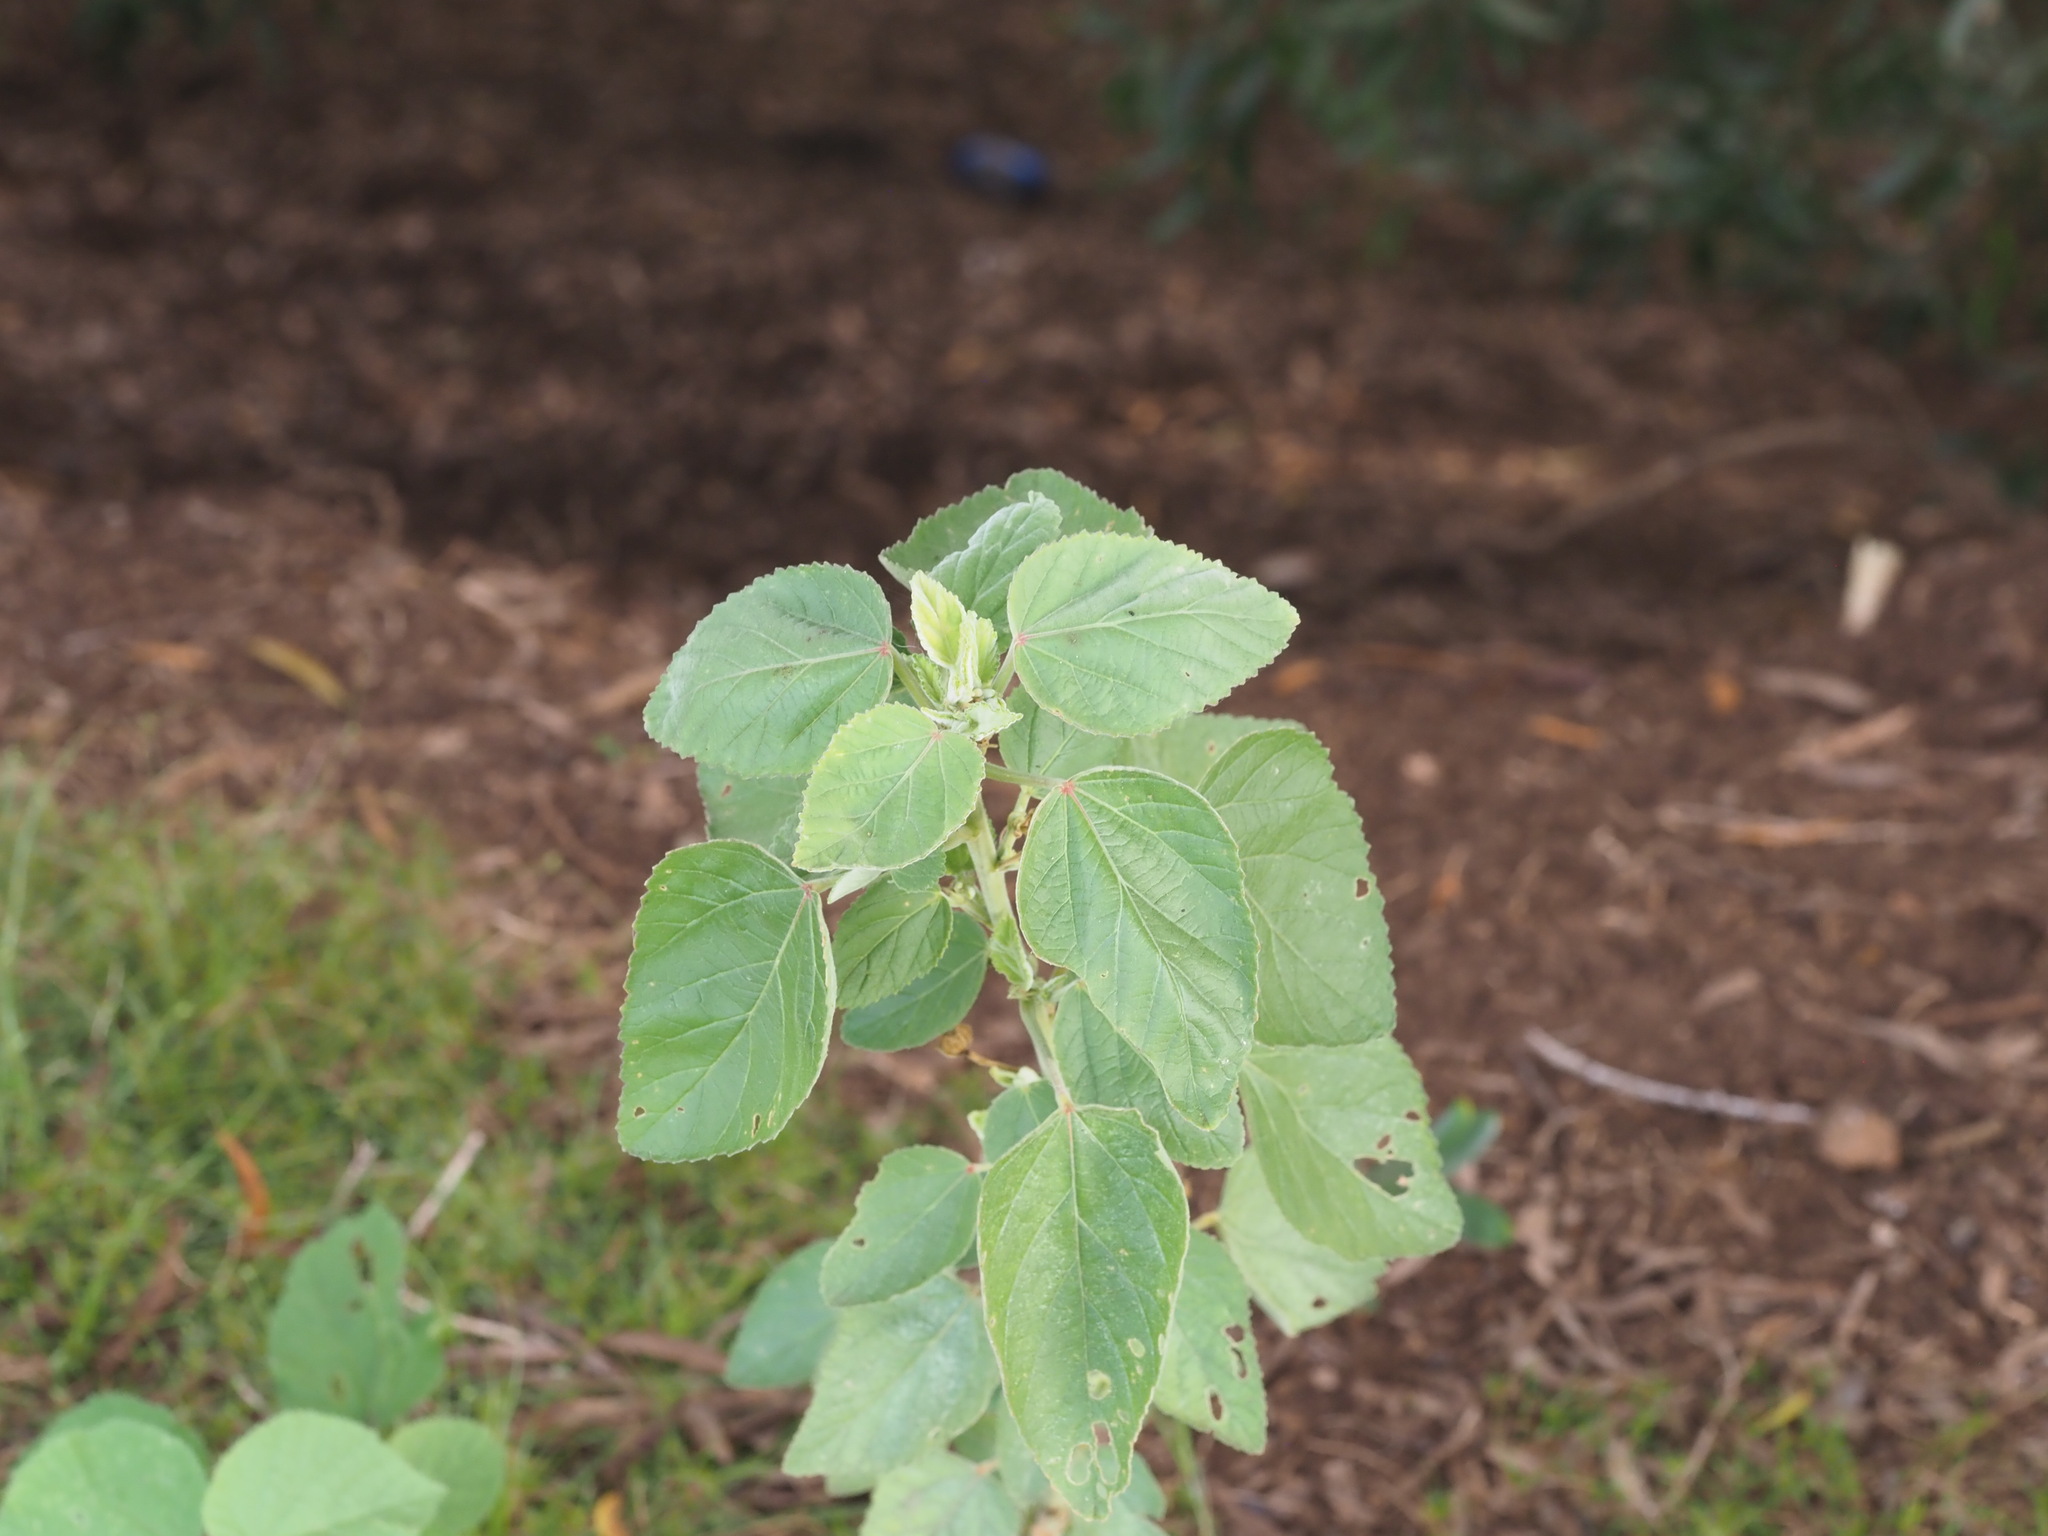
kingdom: Plantae
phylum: Tracheophyta
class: Magnoliopsida
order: Malvales
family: Malvaceae
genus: Sida
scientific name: Sida cordifolia
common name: Ilima
